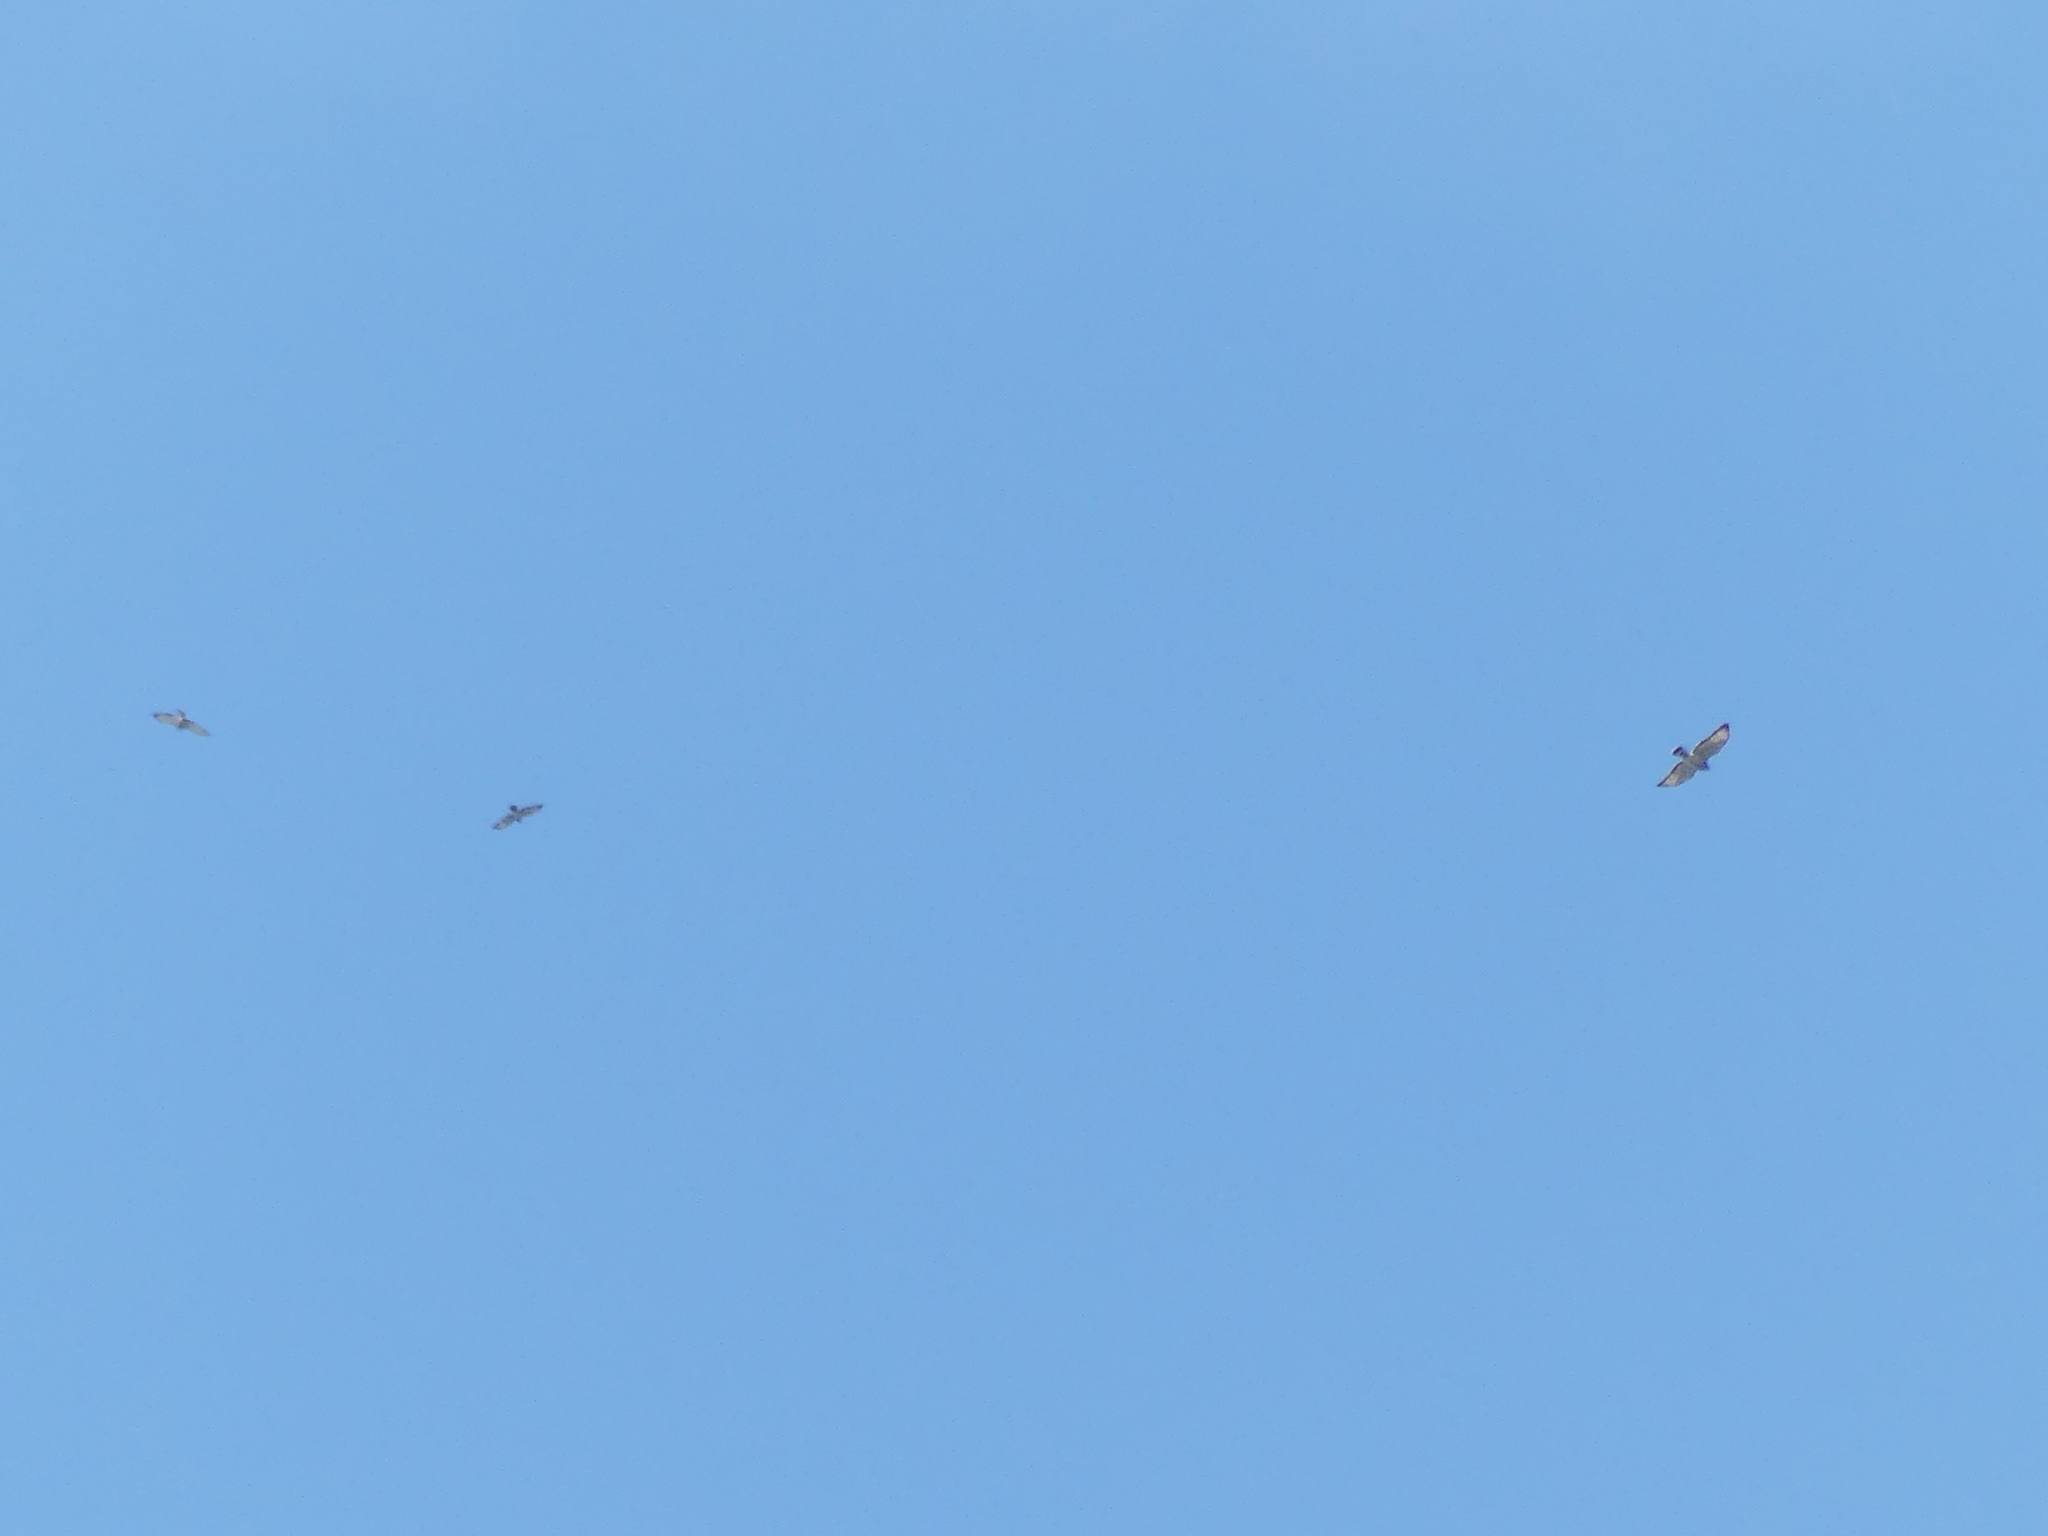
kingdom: Animalia
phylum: Chordata
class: Aves
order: Accipitriformes
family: Accipitridae
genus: Buteo
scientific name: Buteo platypterus
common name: Broad-winged hawk
